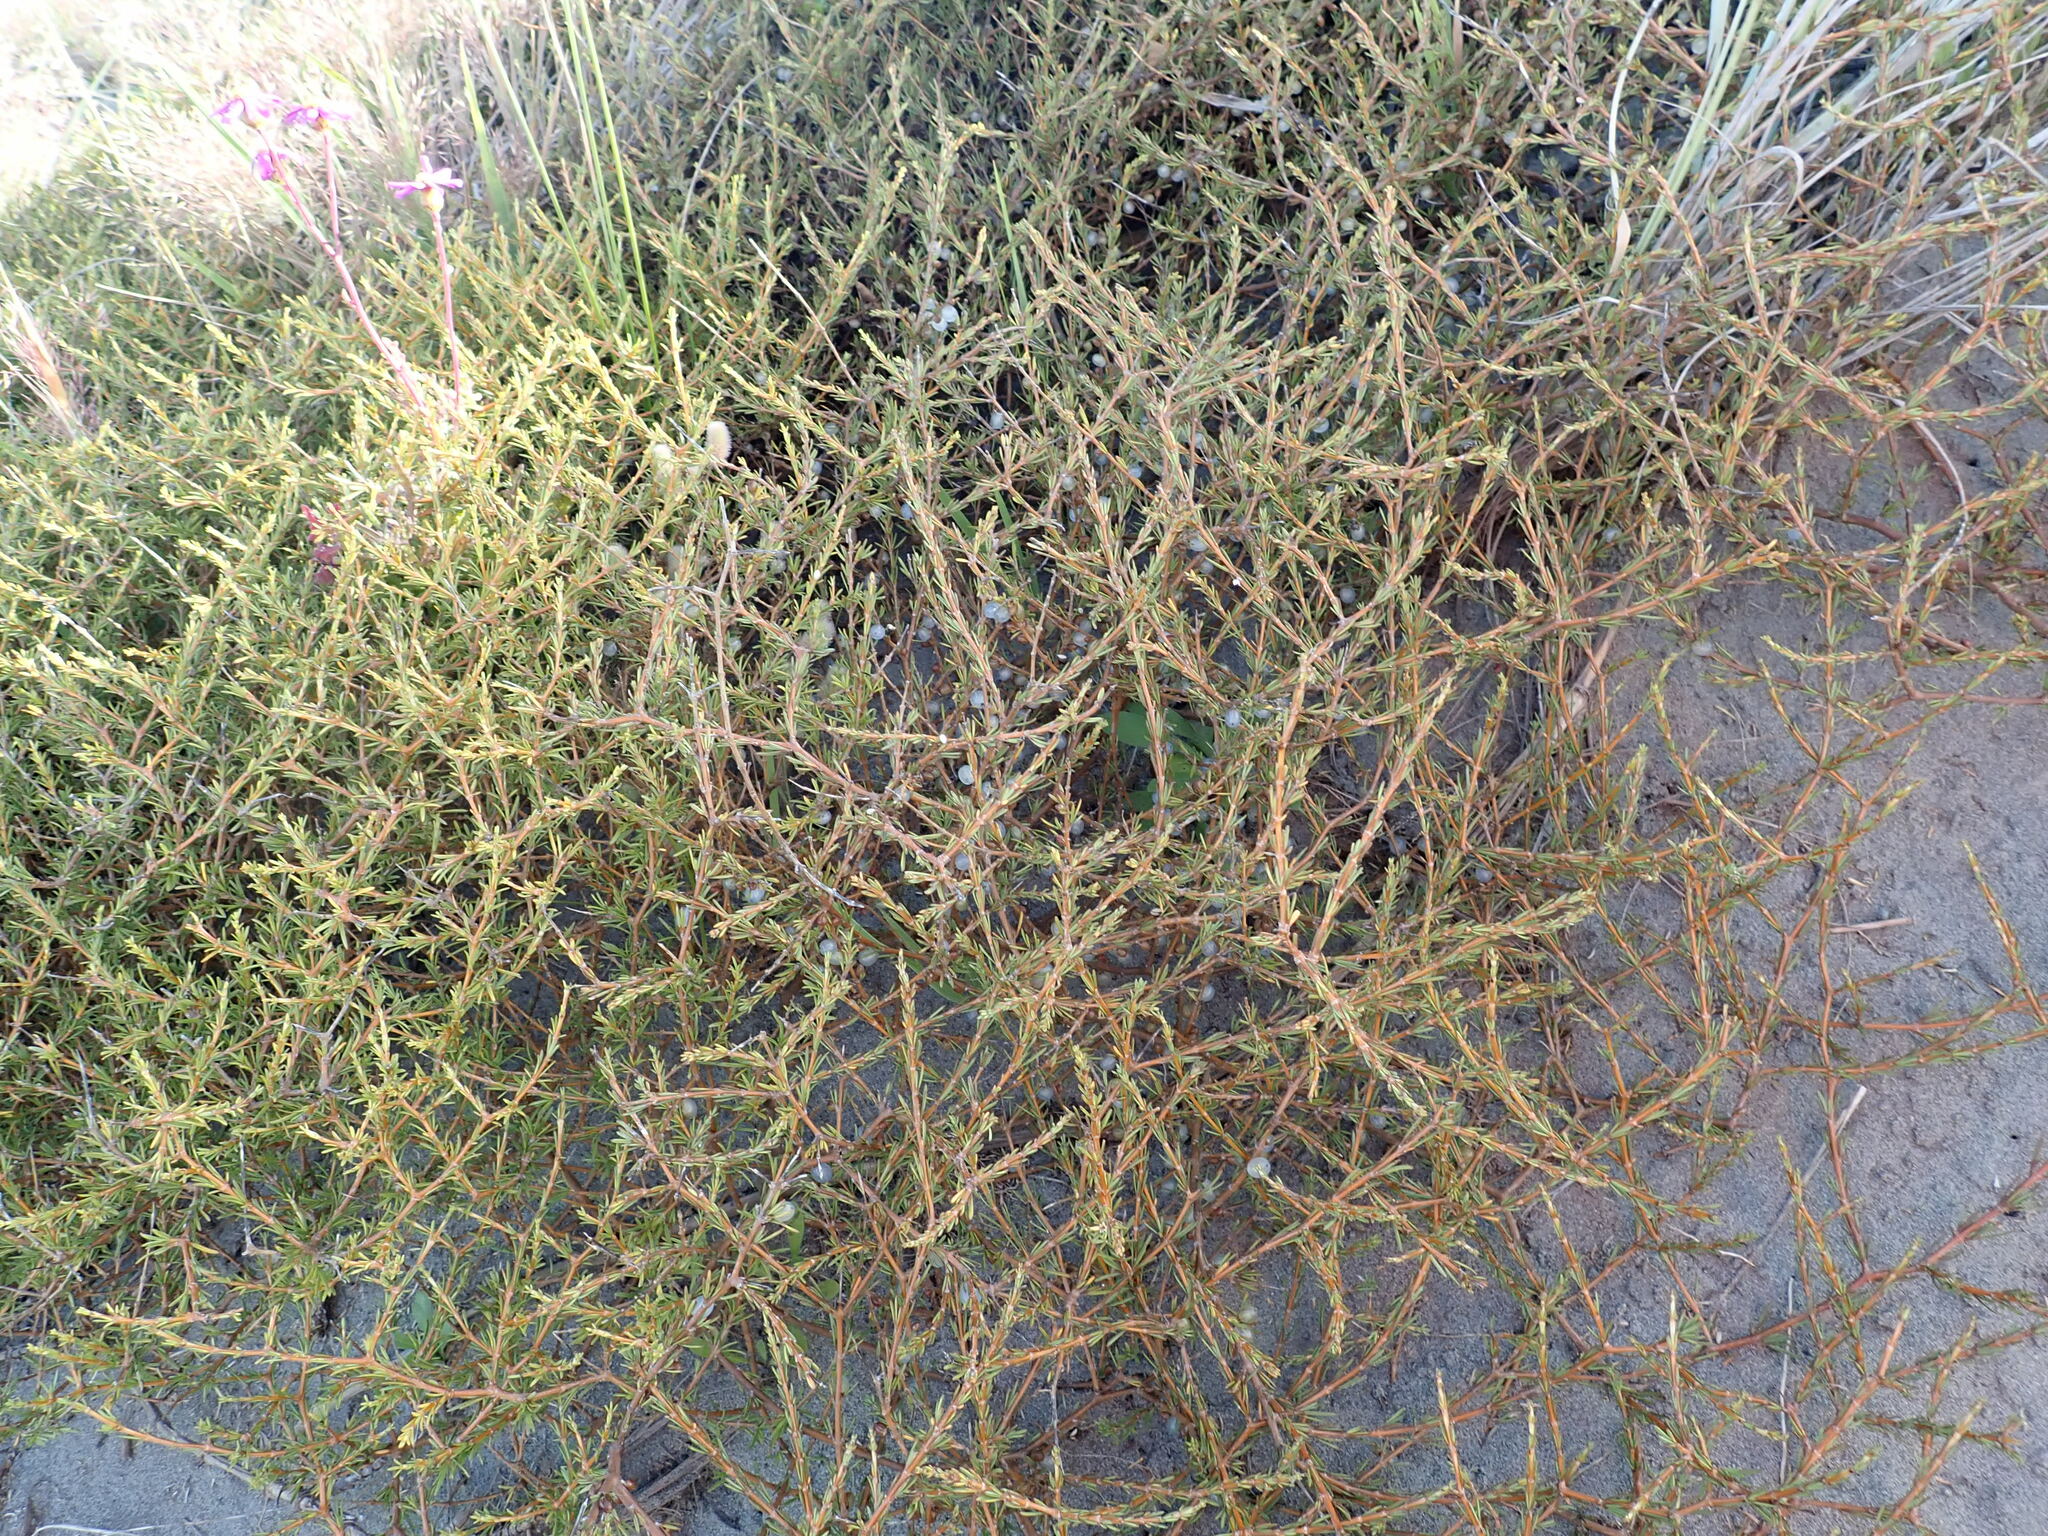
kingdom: Plantae
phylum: Tracheophyta
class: Magnoliopsida
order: Gentianales
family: Rubiaceae
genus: Coprosma
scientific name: Coprosma acerosa
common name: Sand coprosma
